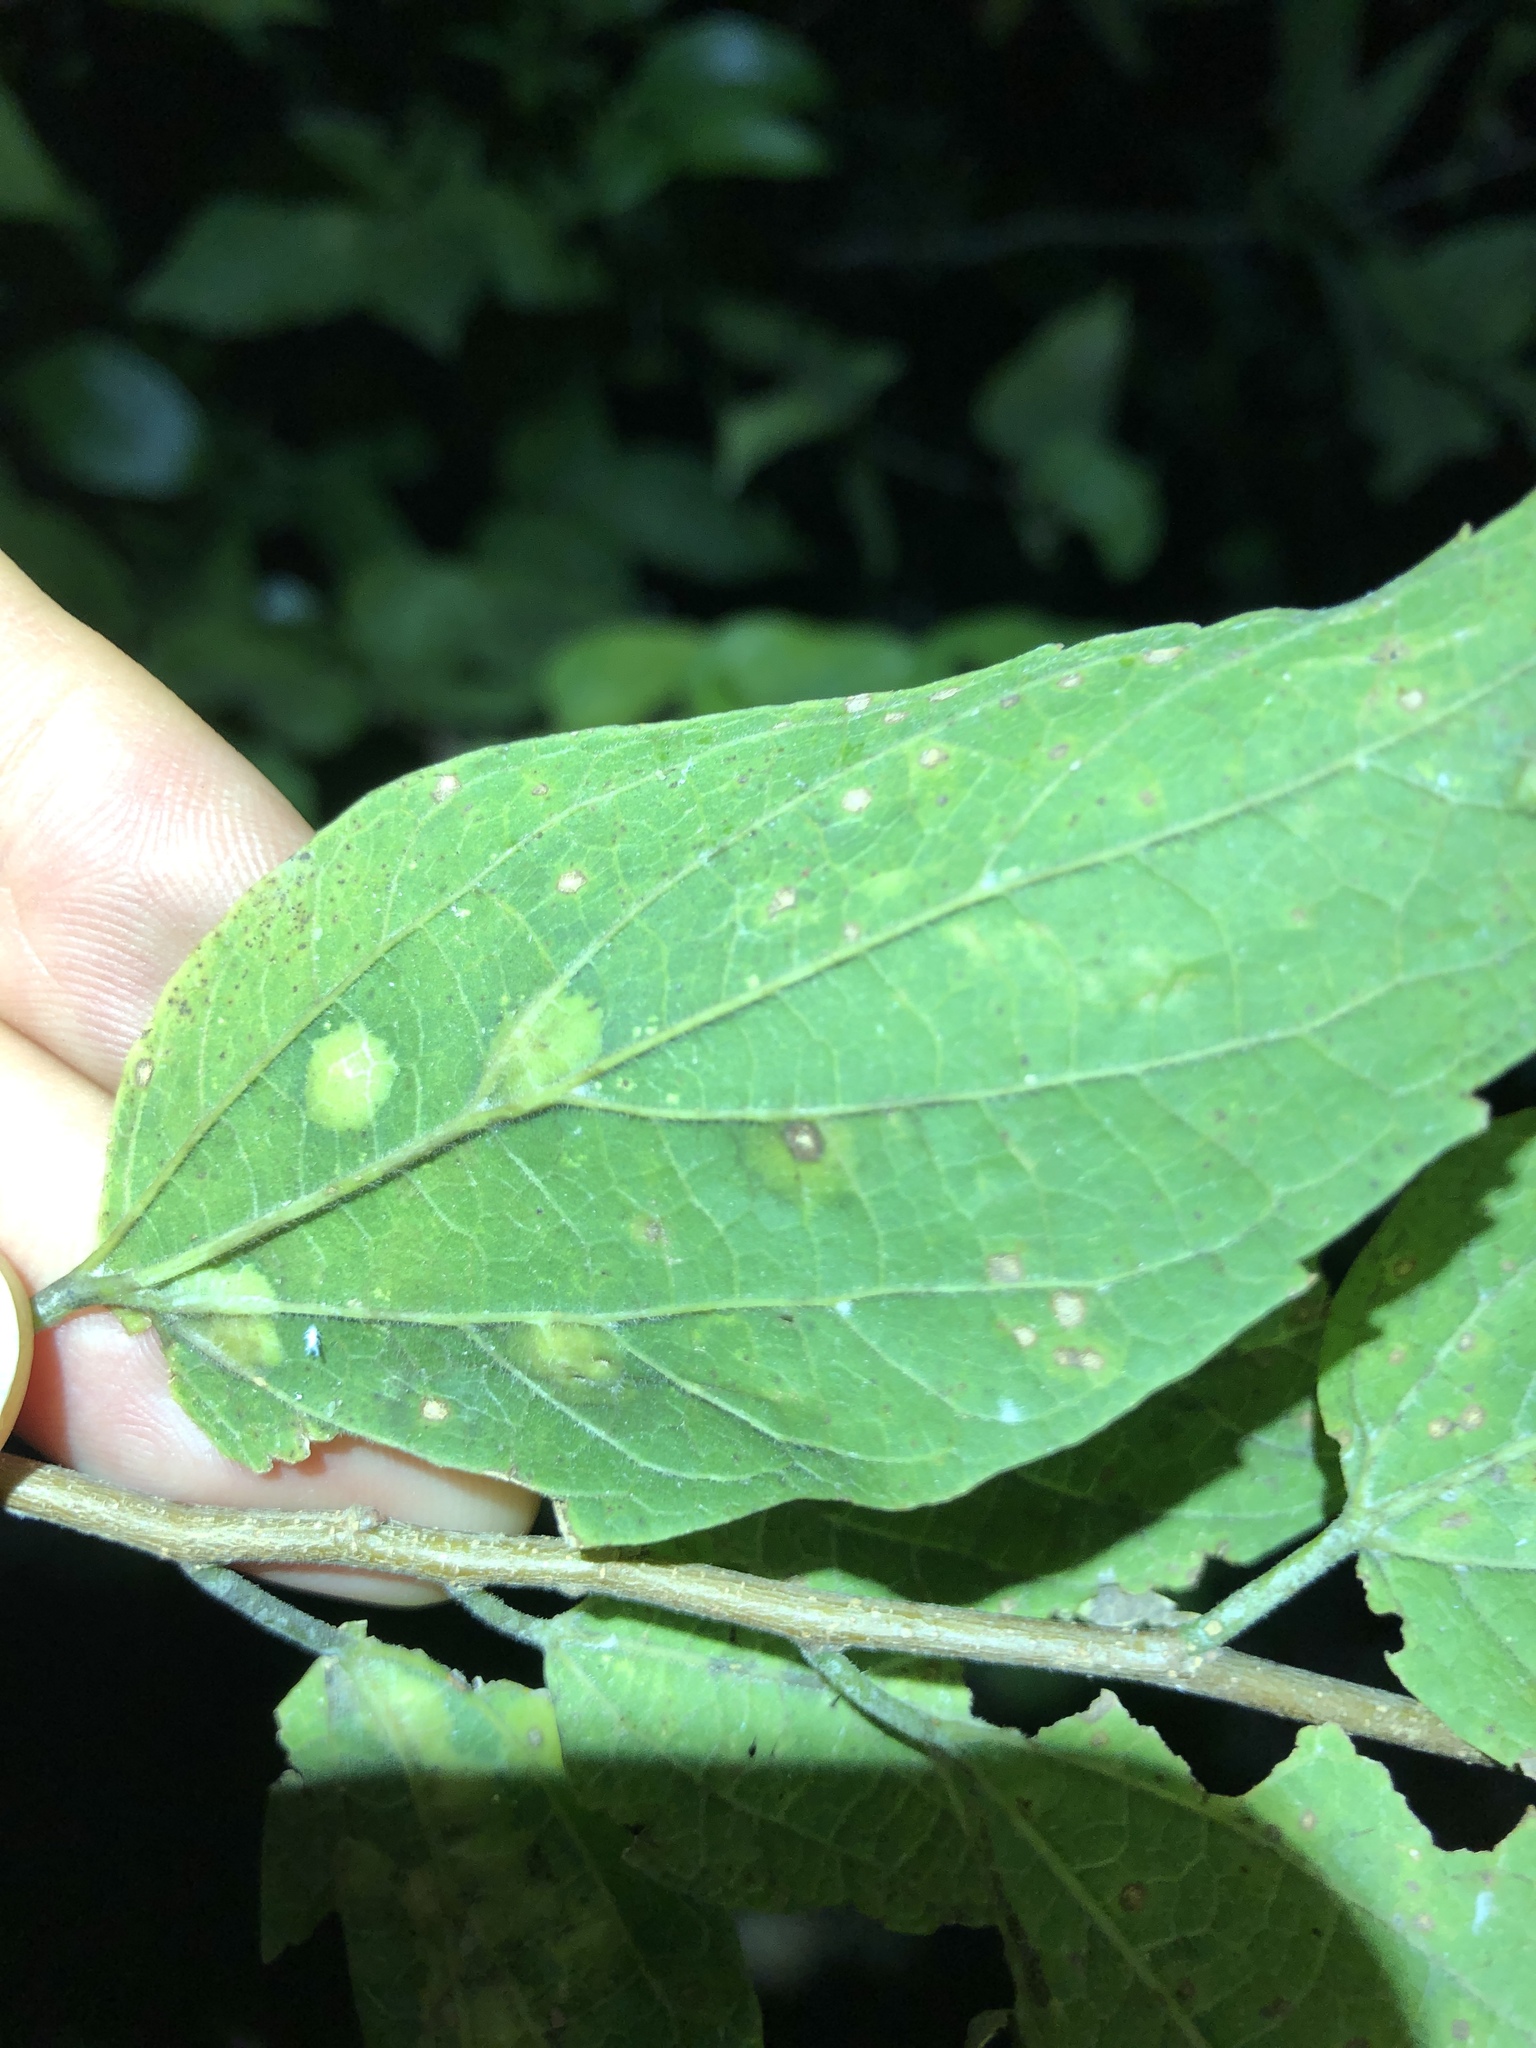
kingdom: Animalia
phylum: Arthropoda
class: Insecta
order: Hemiptera
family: Aphalaridae
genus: Pachypsylla
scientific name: Pachypsylla celtidisvesicula
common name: Hackberry blister gall psyllid
